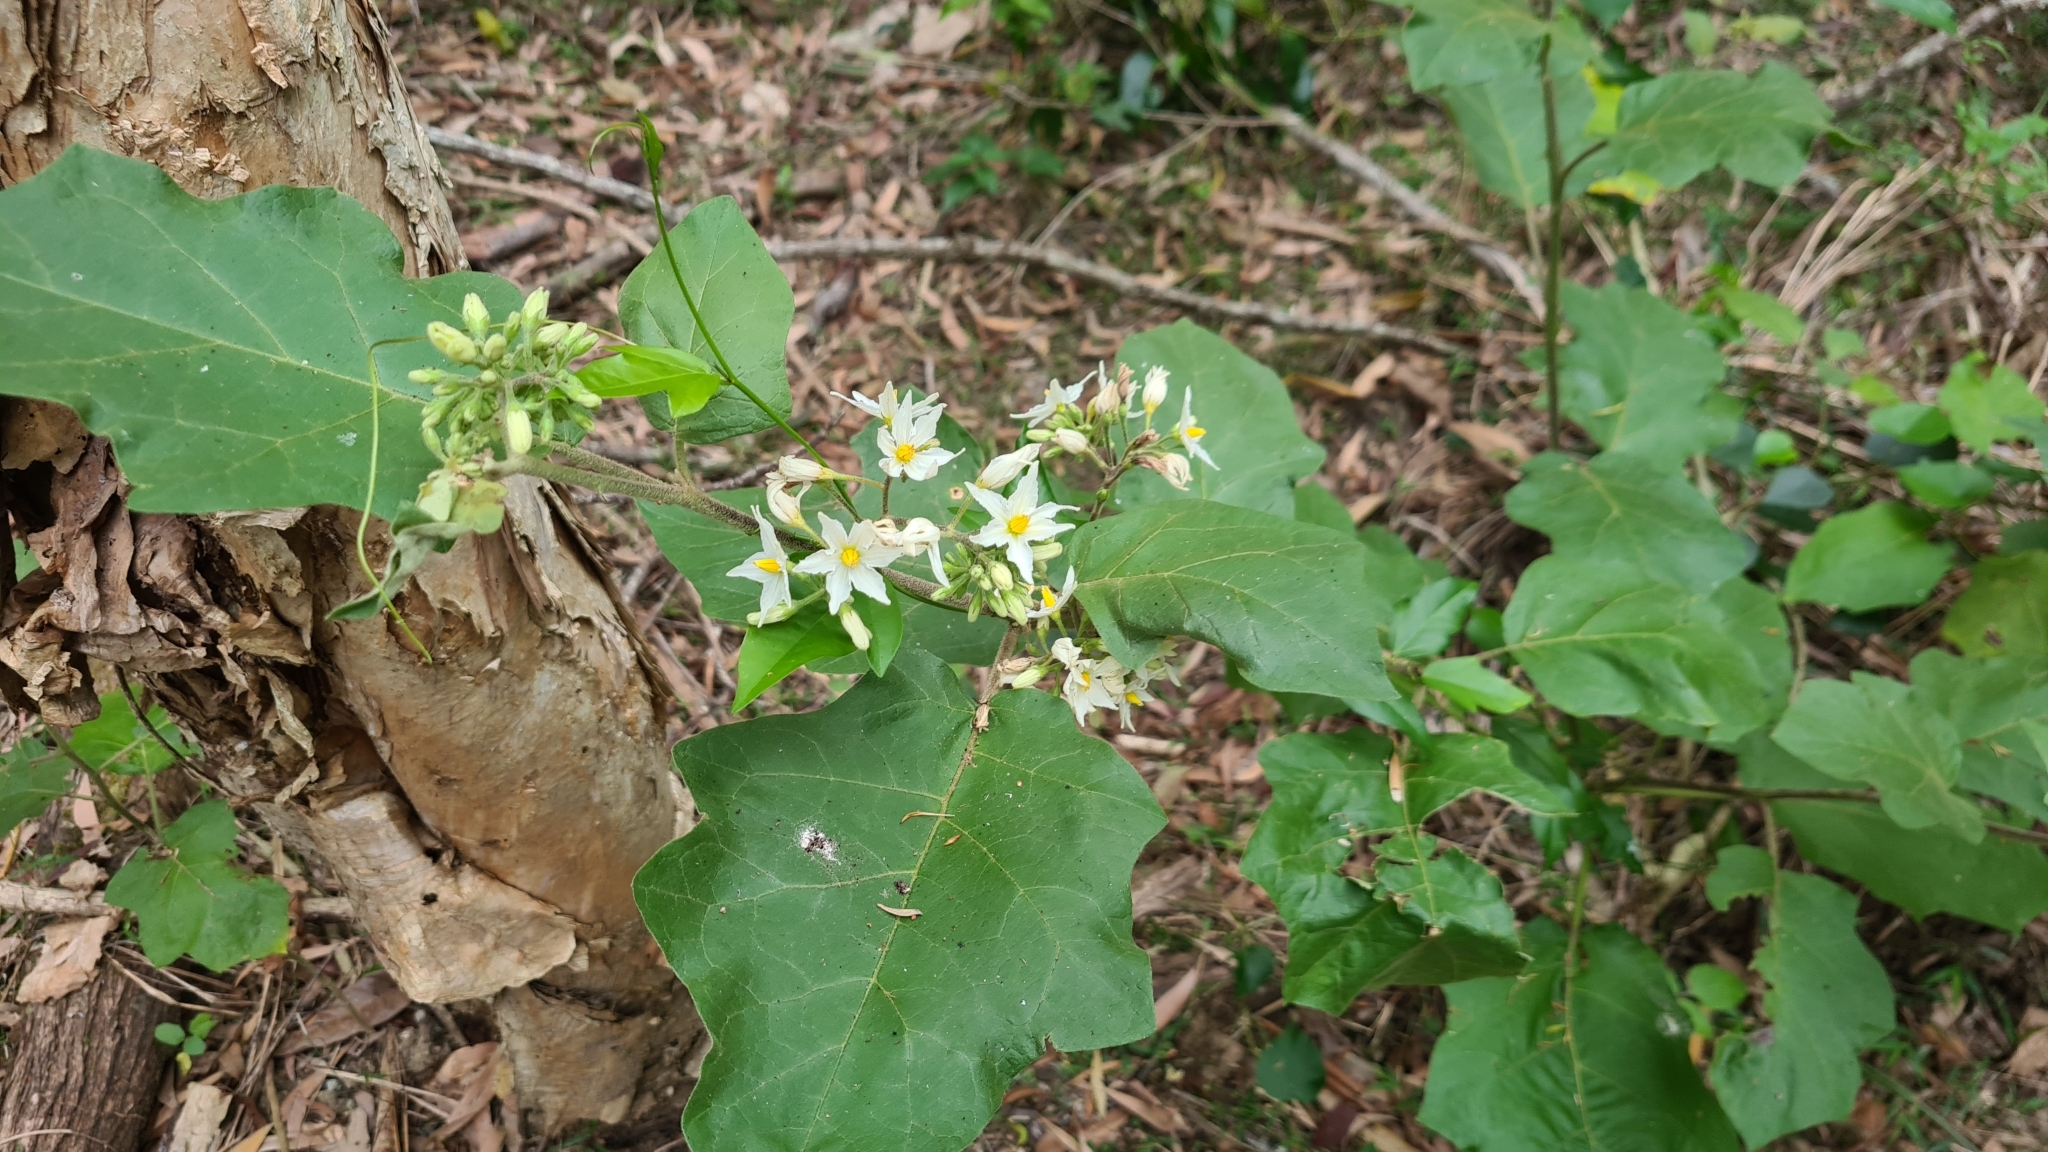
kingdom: Plantae
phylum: Tracheophyta
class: Magnoliopsida
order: Solanales
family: Solanaceae
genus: Solanum
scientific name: Solanum torvum
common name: Turkey berry
